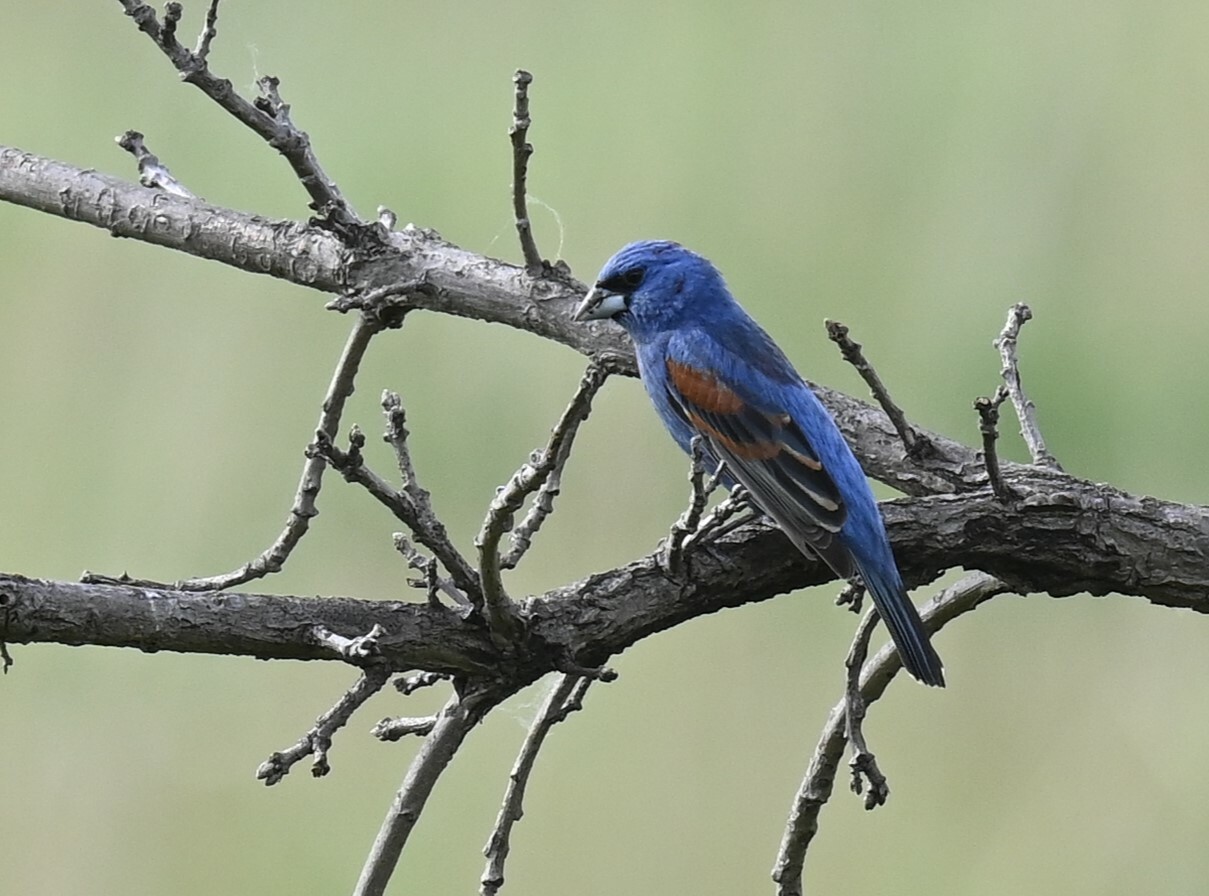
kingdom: Animalia
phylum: Chordata
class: Aves
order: Passeriformes
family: Cardinalidae
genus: Passerina
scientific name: Passerina caerulea
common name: Blue grosbeak
